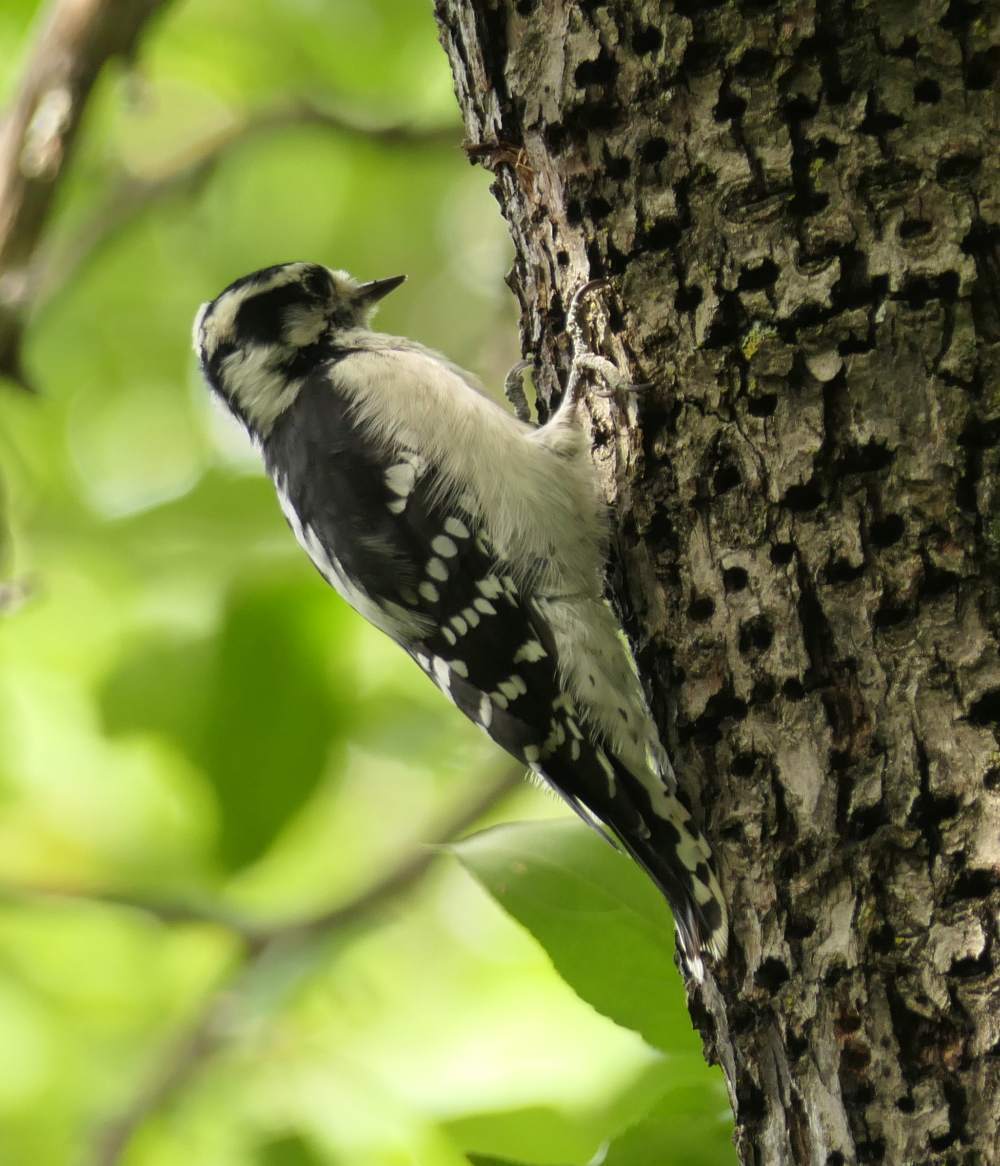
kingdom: Animalia
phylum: Chordata
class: Aves
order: Piciformes
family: Picidae
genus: Dryobates
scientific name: Dryobates pubescens
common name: Downy woodpecker
